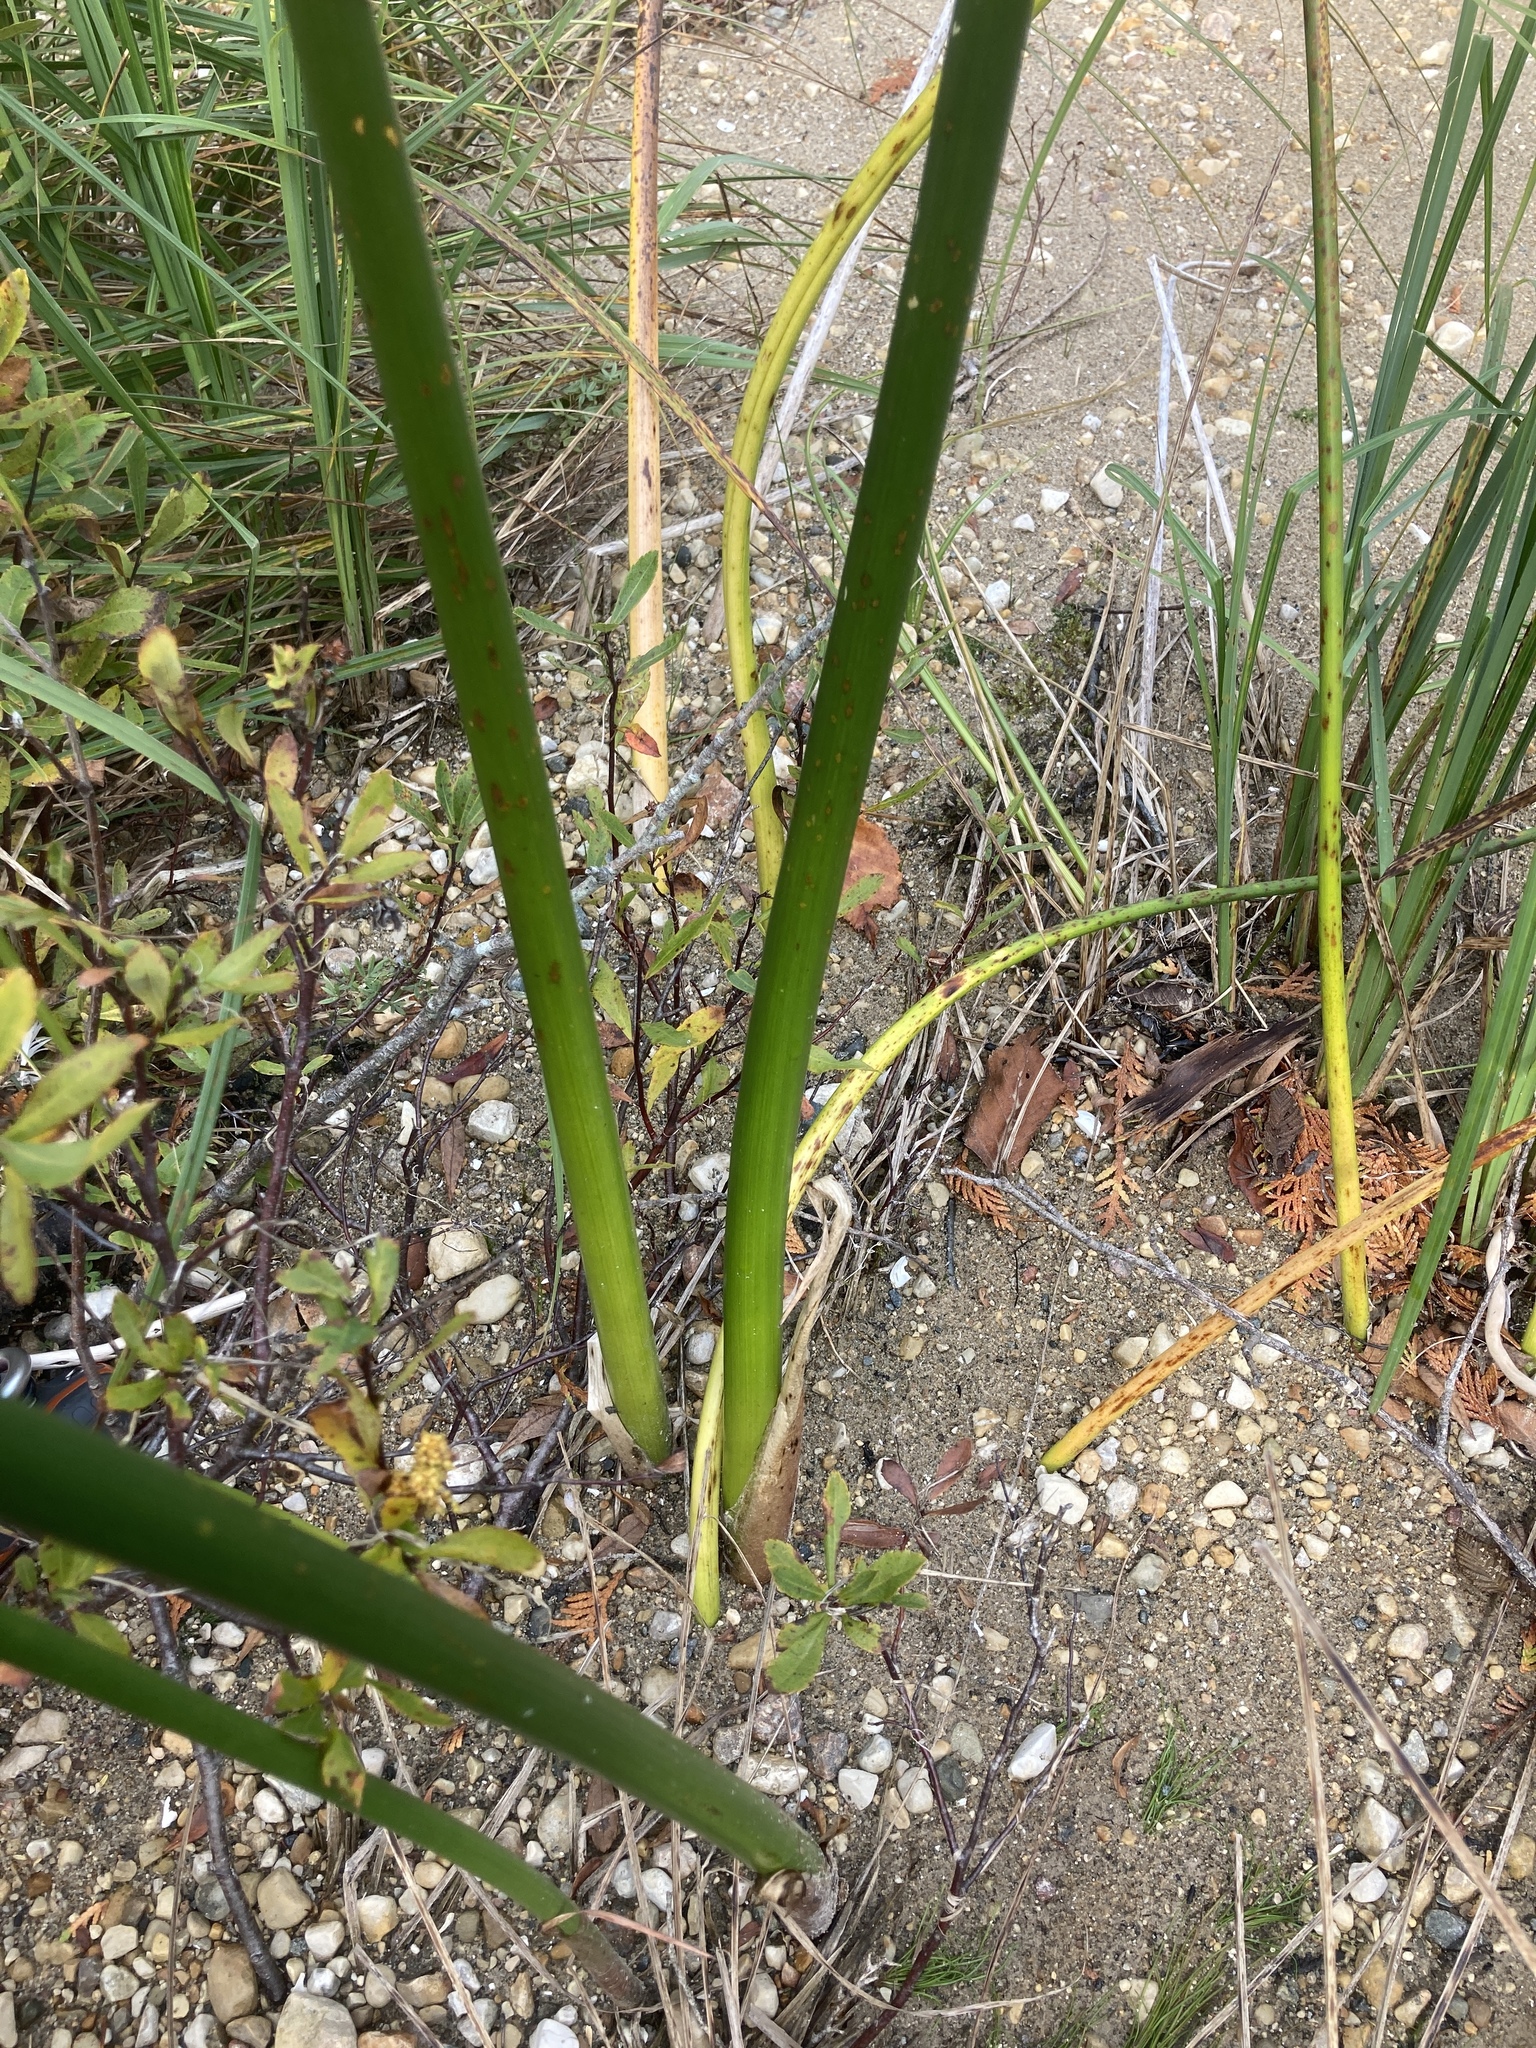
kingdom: Plantae
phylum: Tracheophyta
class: Liliopsida
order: Poales
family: Cyperaceae
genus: Schoenoplectus
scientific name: Schoenoplectus acutus
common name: Hardstem bulrush
